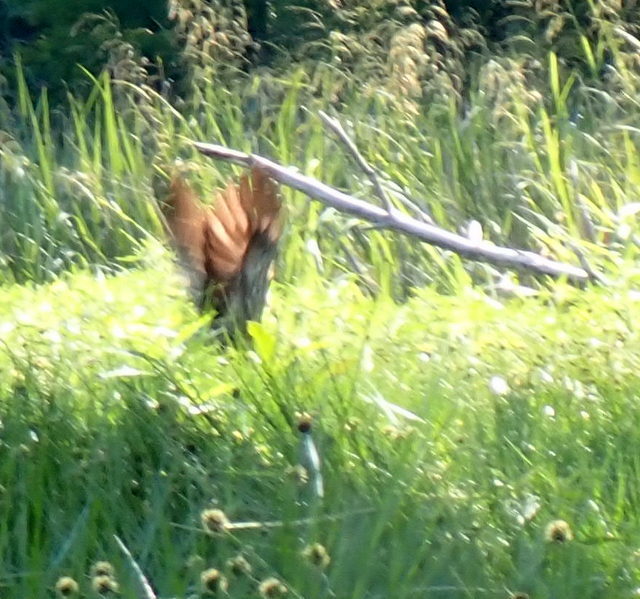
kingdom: Animalia
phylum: Chordata
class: Aves
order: Gruiformes
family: Aramidae
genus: Aramus
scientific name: Aramus guarauna
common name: Limpkin
